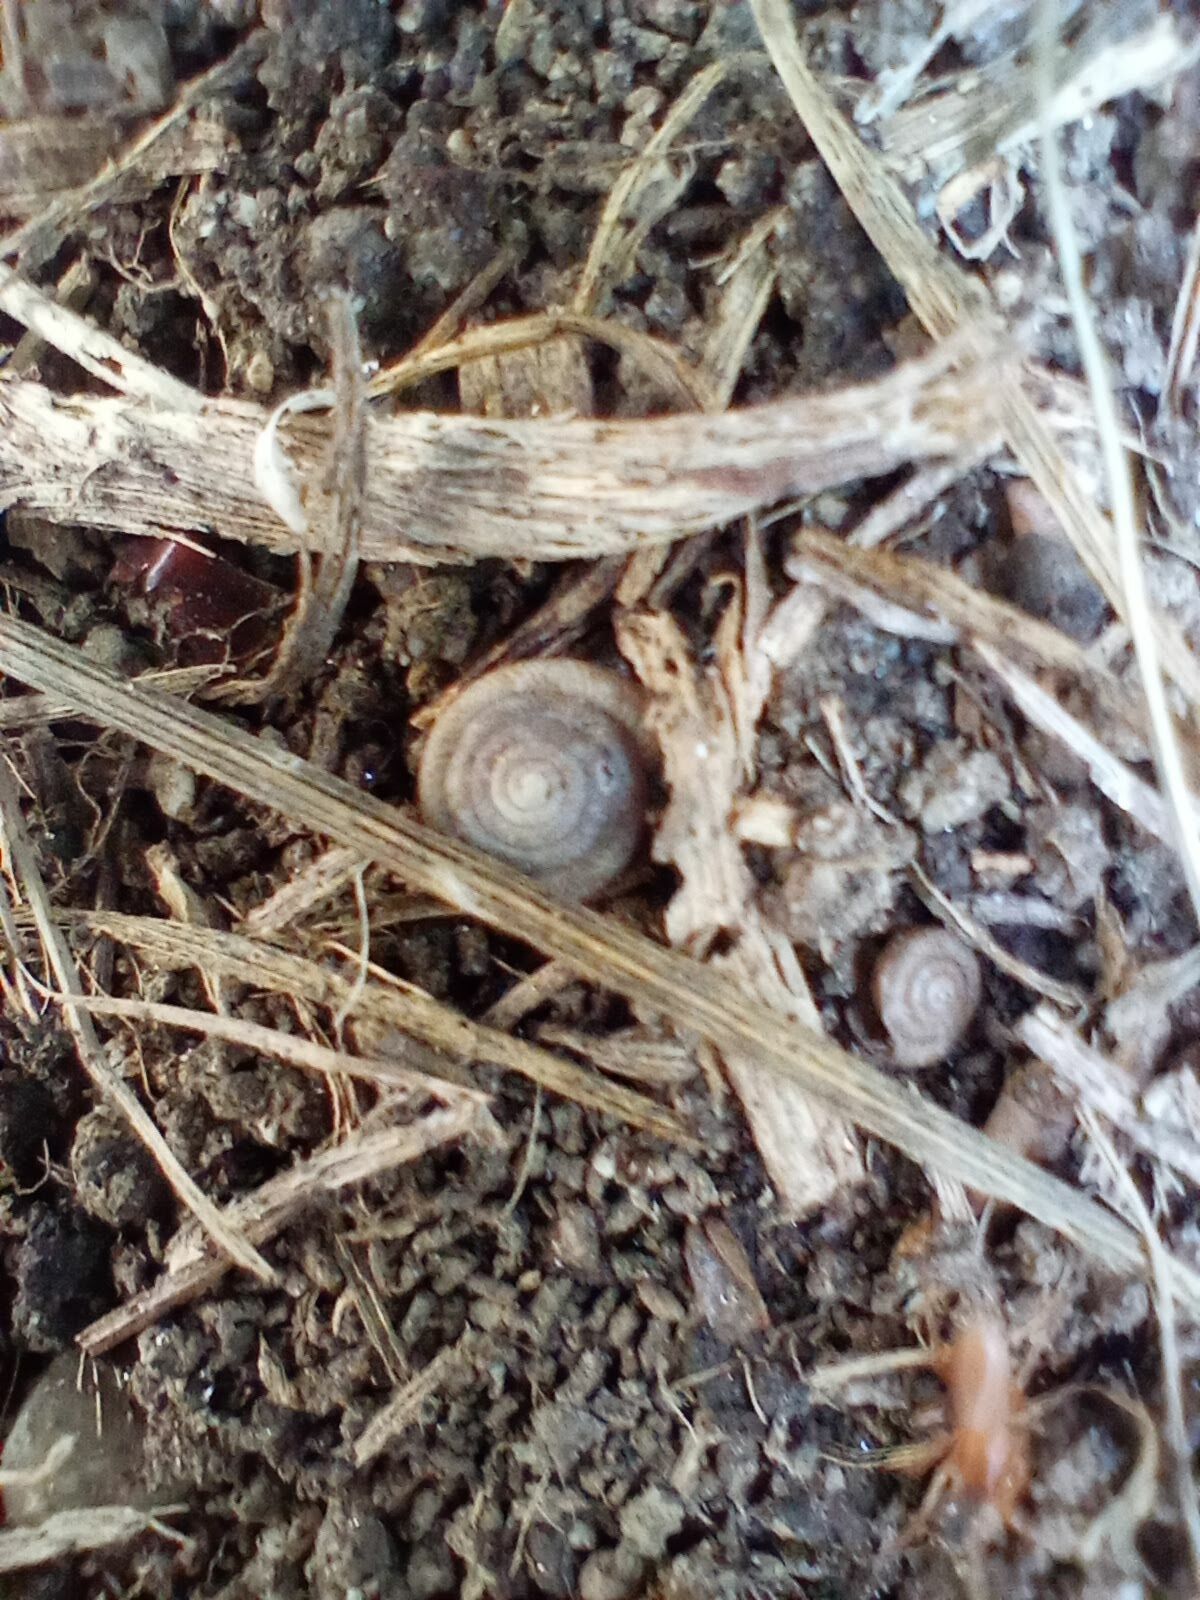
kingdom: Animalia
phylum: Mollusca
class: Gastropoda
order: Stylommatophora
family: Polygyridae
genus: Polygyra
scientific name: Polygyra cereolus
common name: Southern flatcone snail
